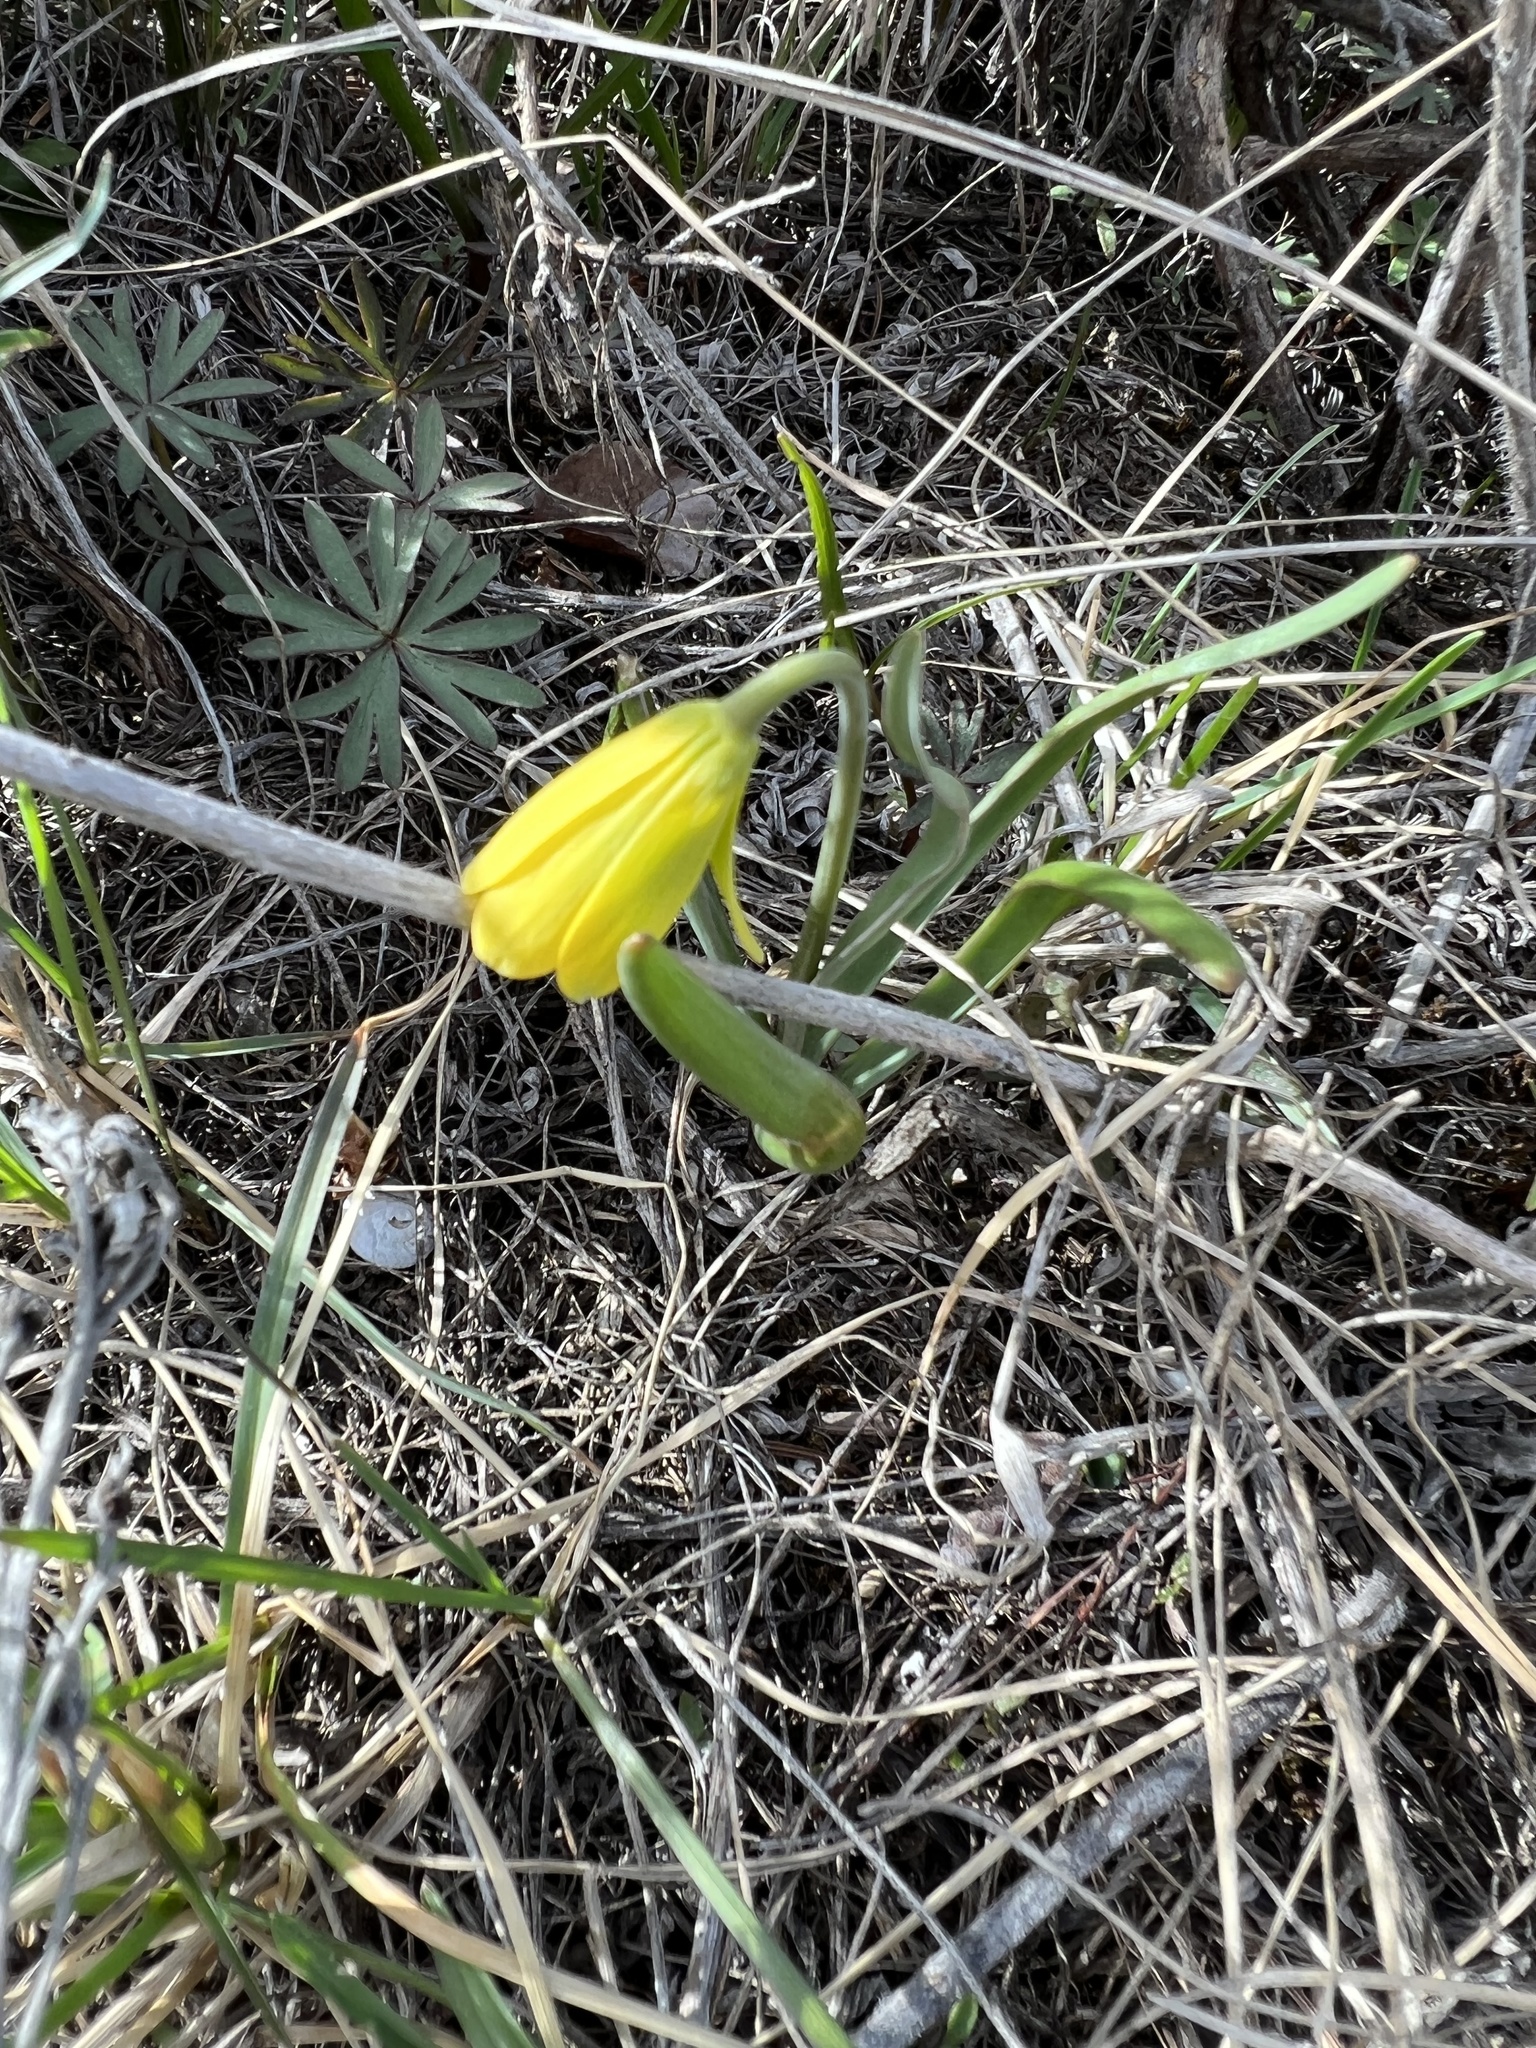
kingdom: Plantae
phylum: Tracheophyta
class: Liliopsida
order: Liliales
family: Liliaceae
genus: Fritillaria
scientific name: Fritillaria pudica
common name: Yellow fritillary
